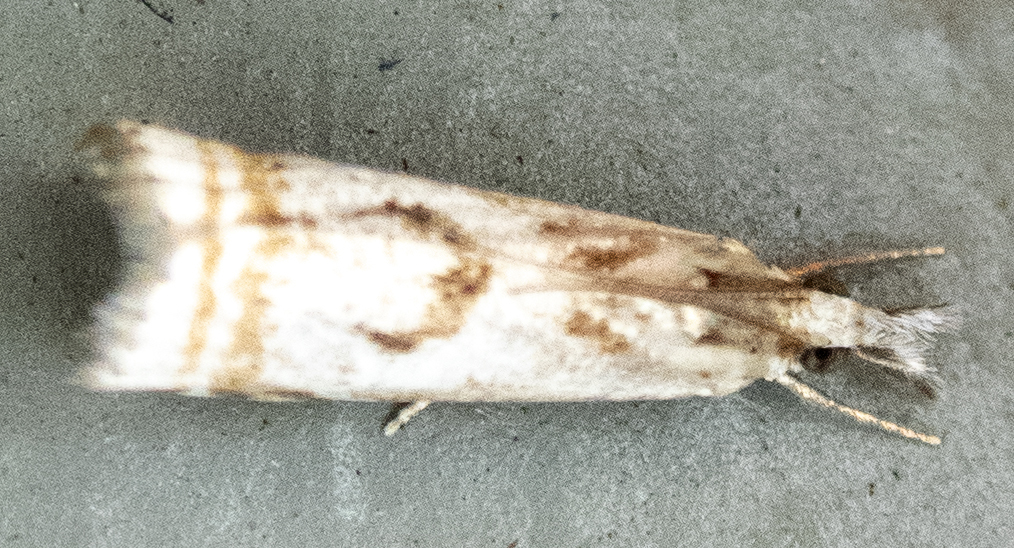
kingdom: Animalia
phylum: Arthropoda
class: Insecta
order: Lepidoptera
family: Crambidae
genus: Microcrambus
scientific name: Microcrambus elegans
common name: Elegant grass-veneer
